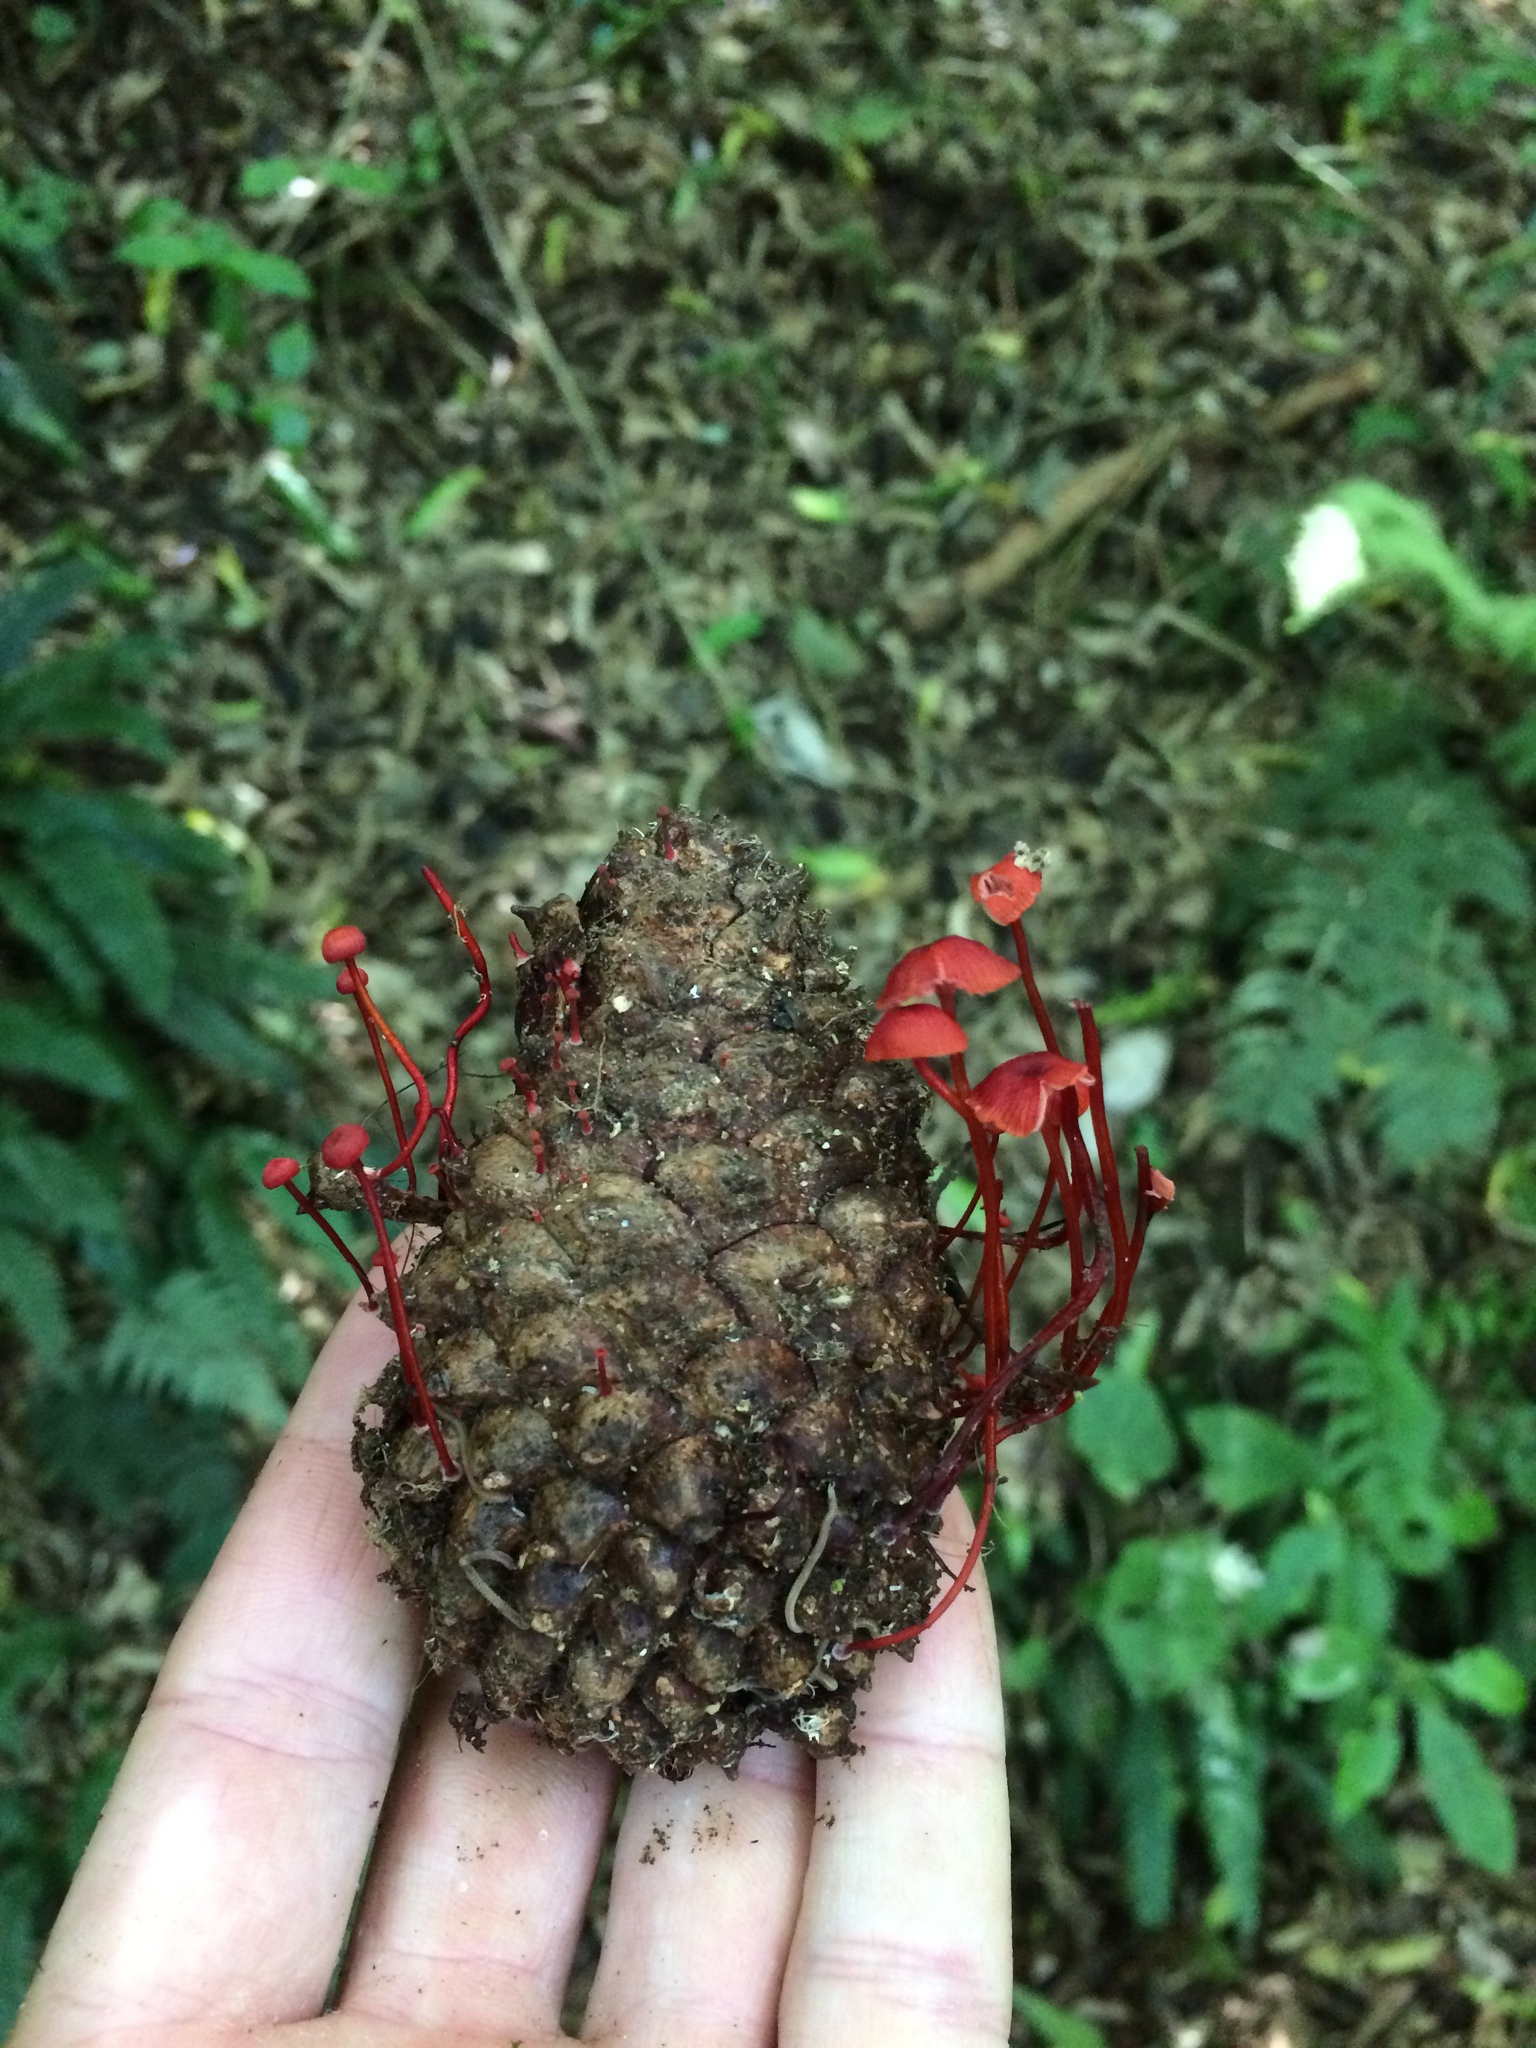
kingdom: Fungi
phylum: Basidiomycota
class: Agaricomycetes
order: Agaricales
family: Mycenaceae
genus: Cruentomycena
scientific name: Cruentomycena viscidocruenta
